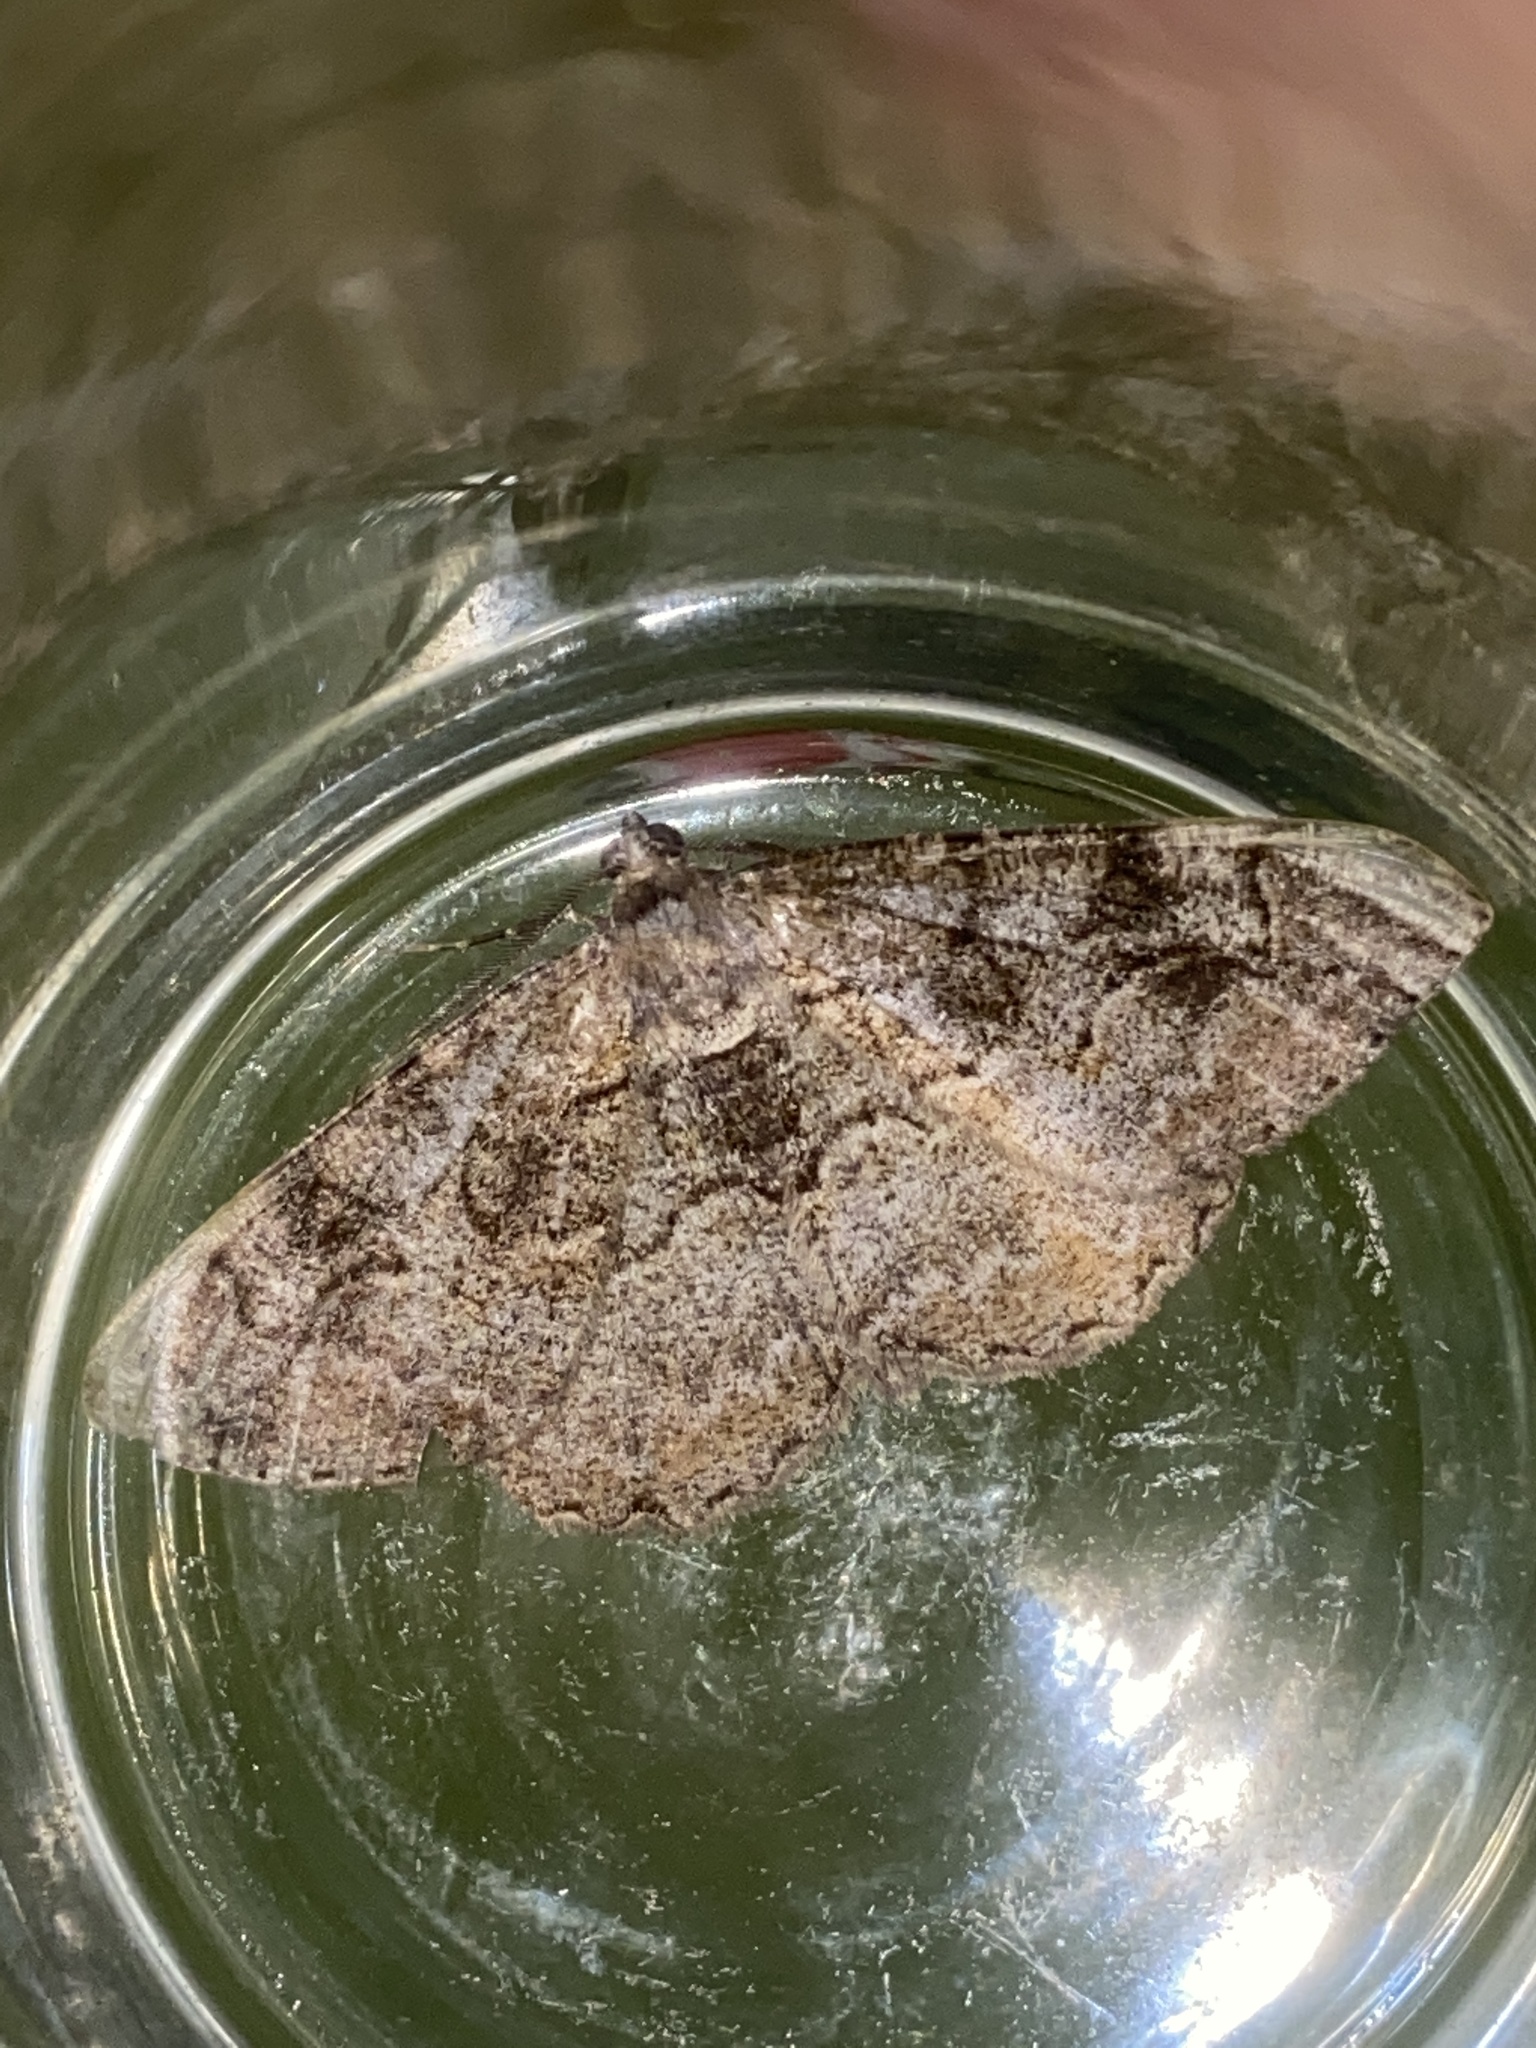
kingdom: Animalia
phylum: Arthropoda
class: Insecta
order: Lepidoptera
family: Geometridae
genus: Alcis
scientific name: Alcis repandata
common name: Mottled beauty
